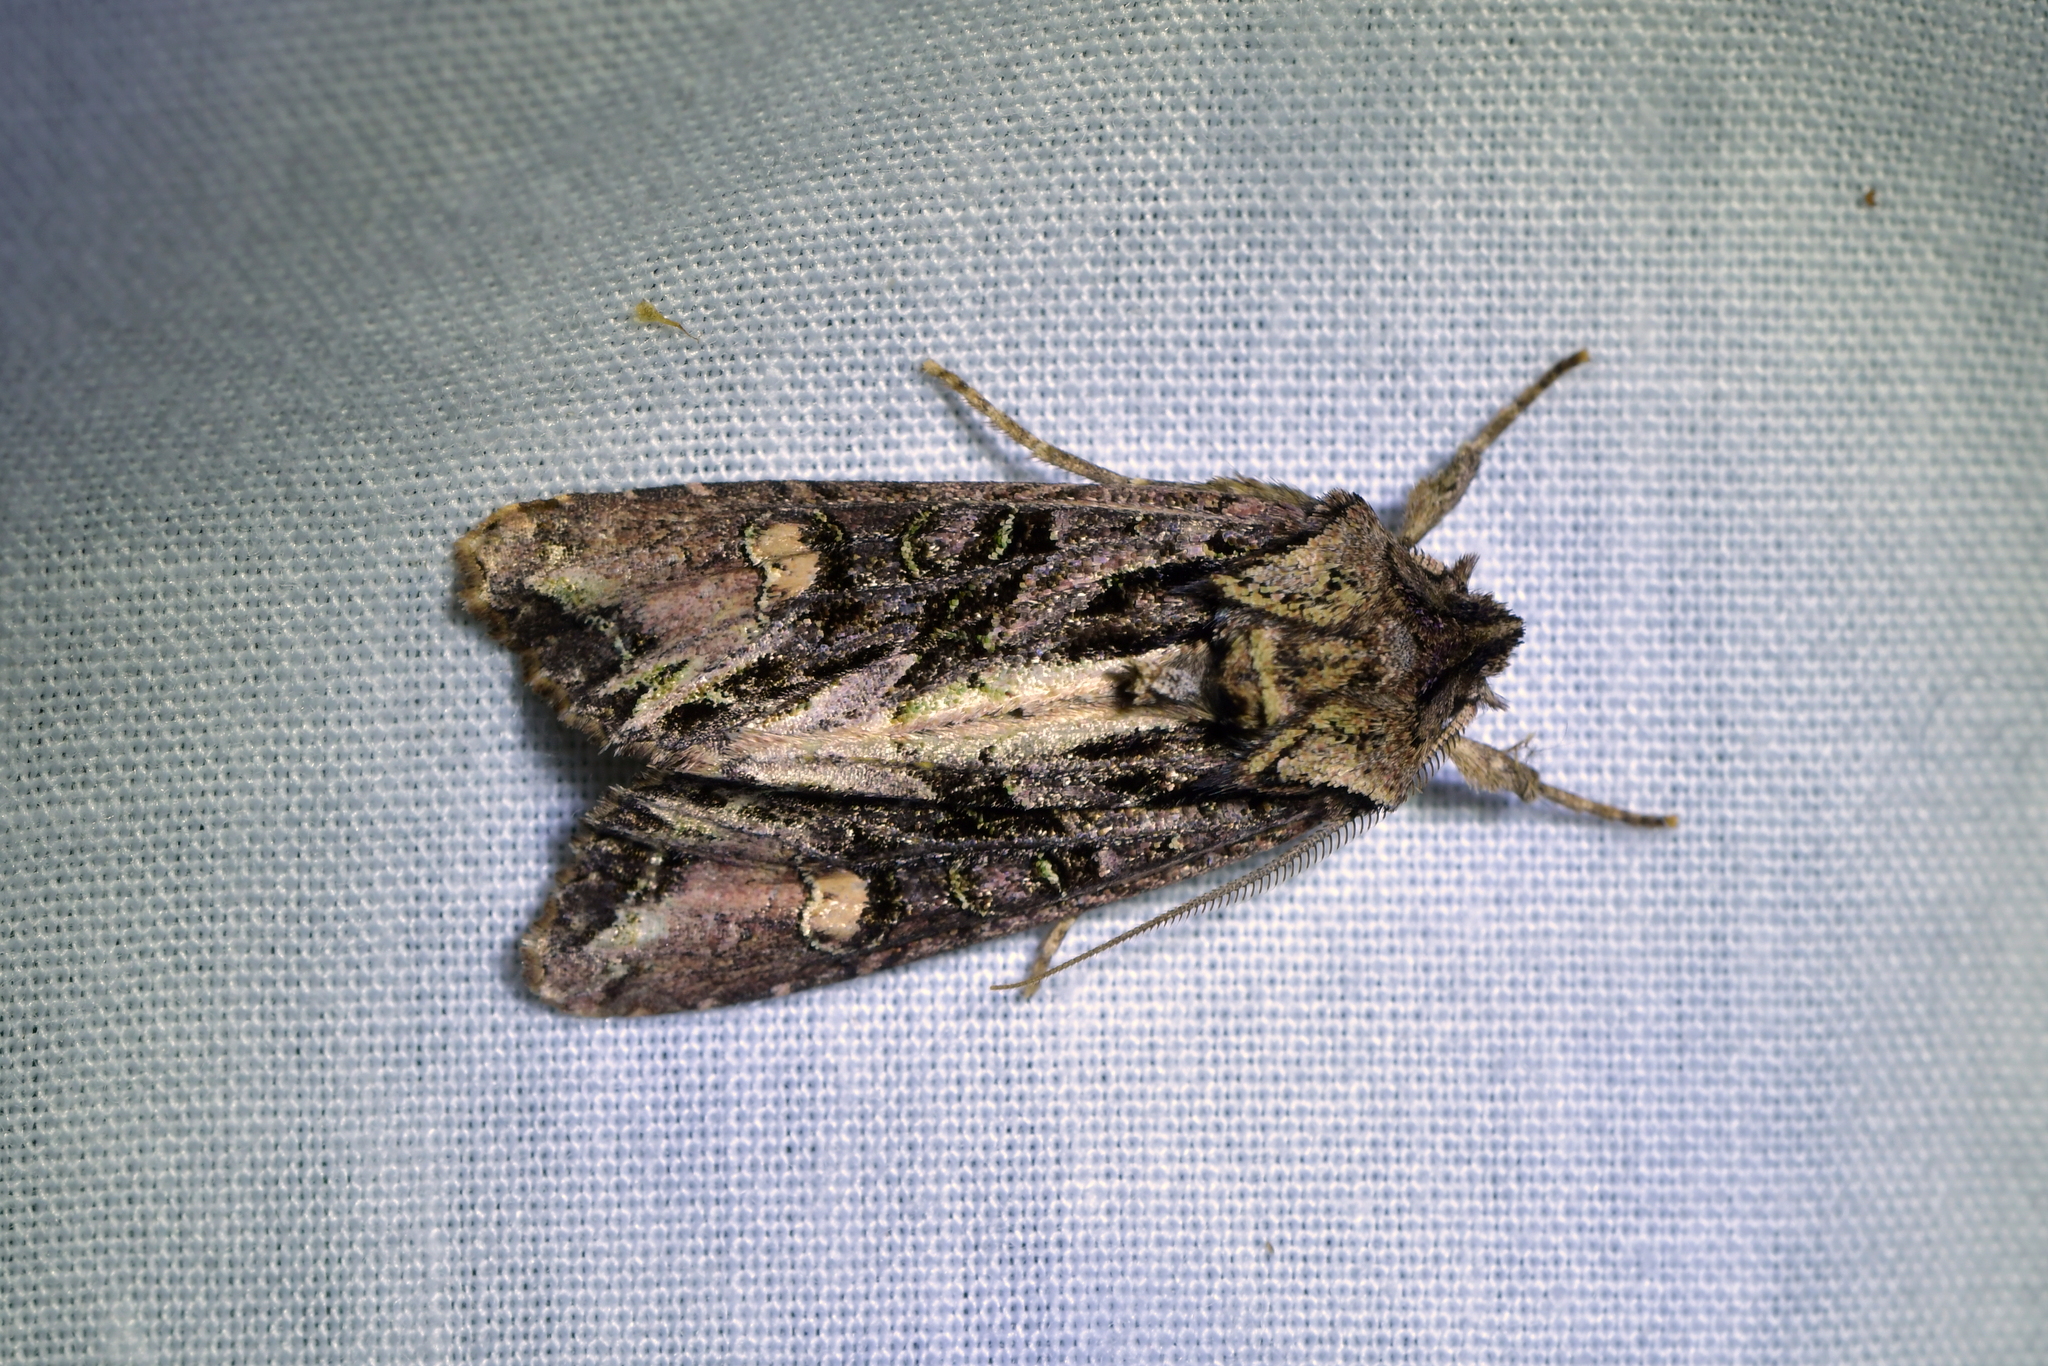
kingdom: Animalia
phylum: Arthropoda
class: Insecta
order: Lepidoptera
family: Noctuidae
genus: Ichneutica
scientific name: Ichneutica insignis
